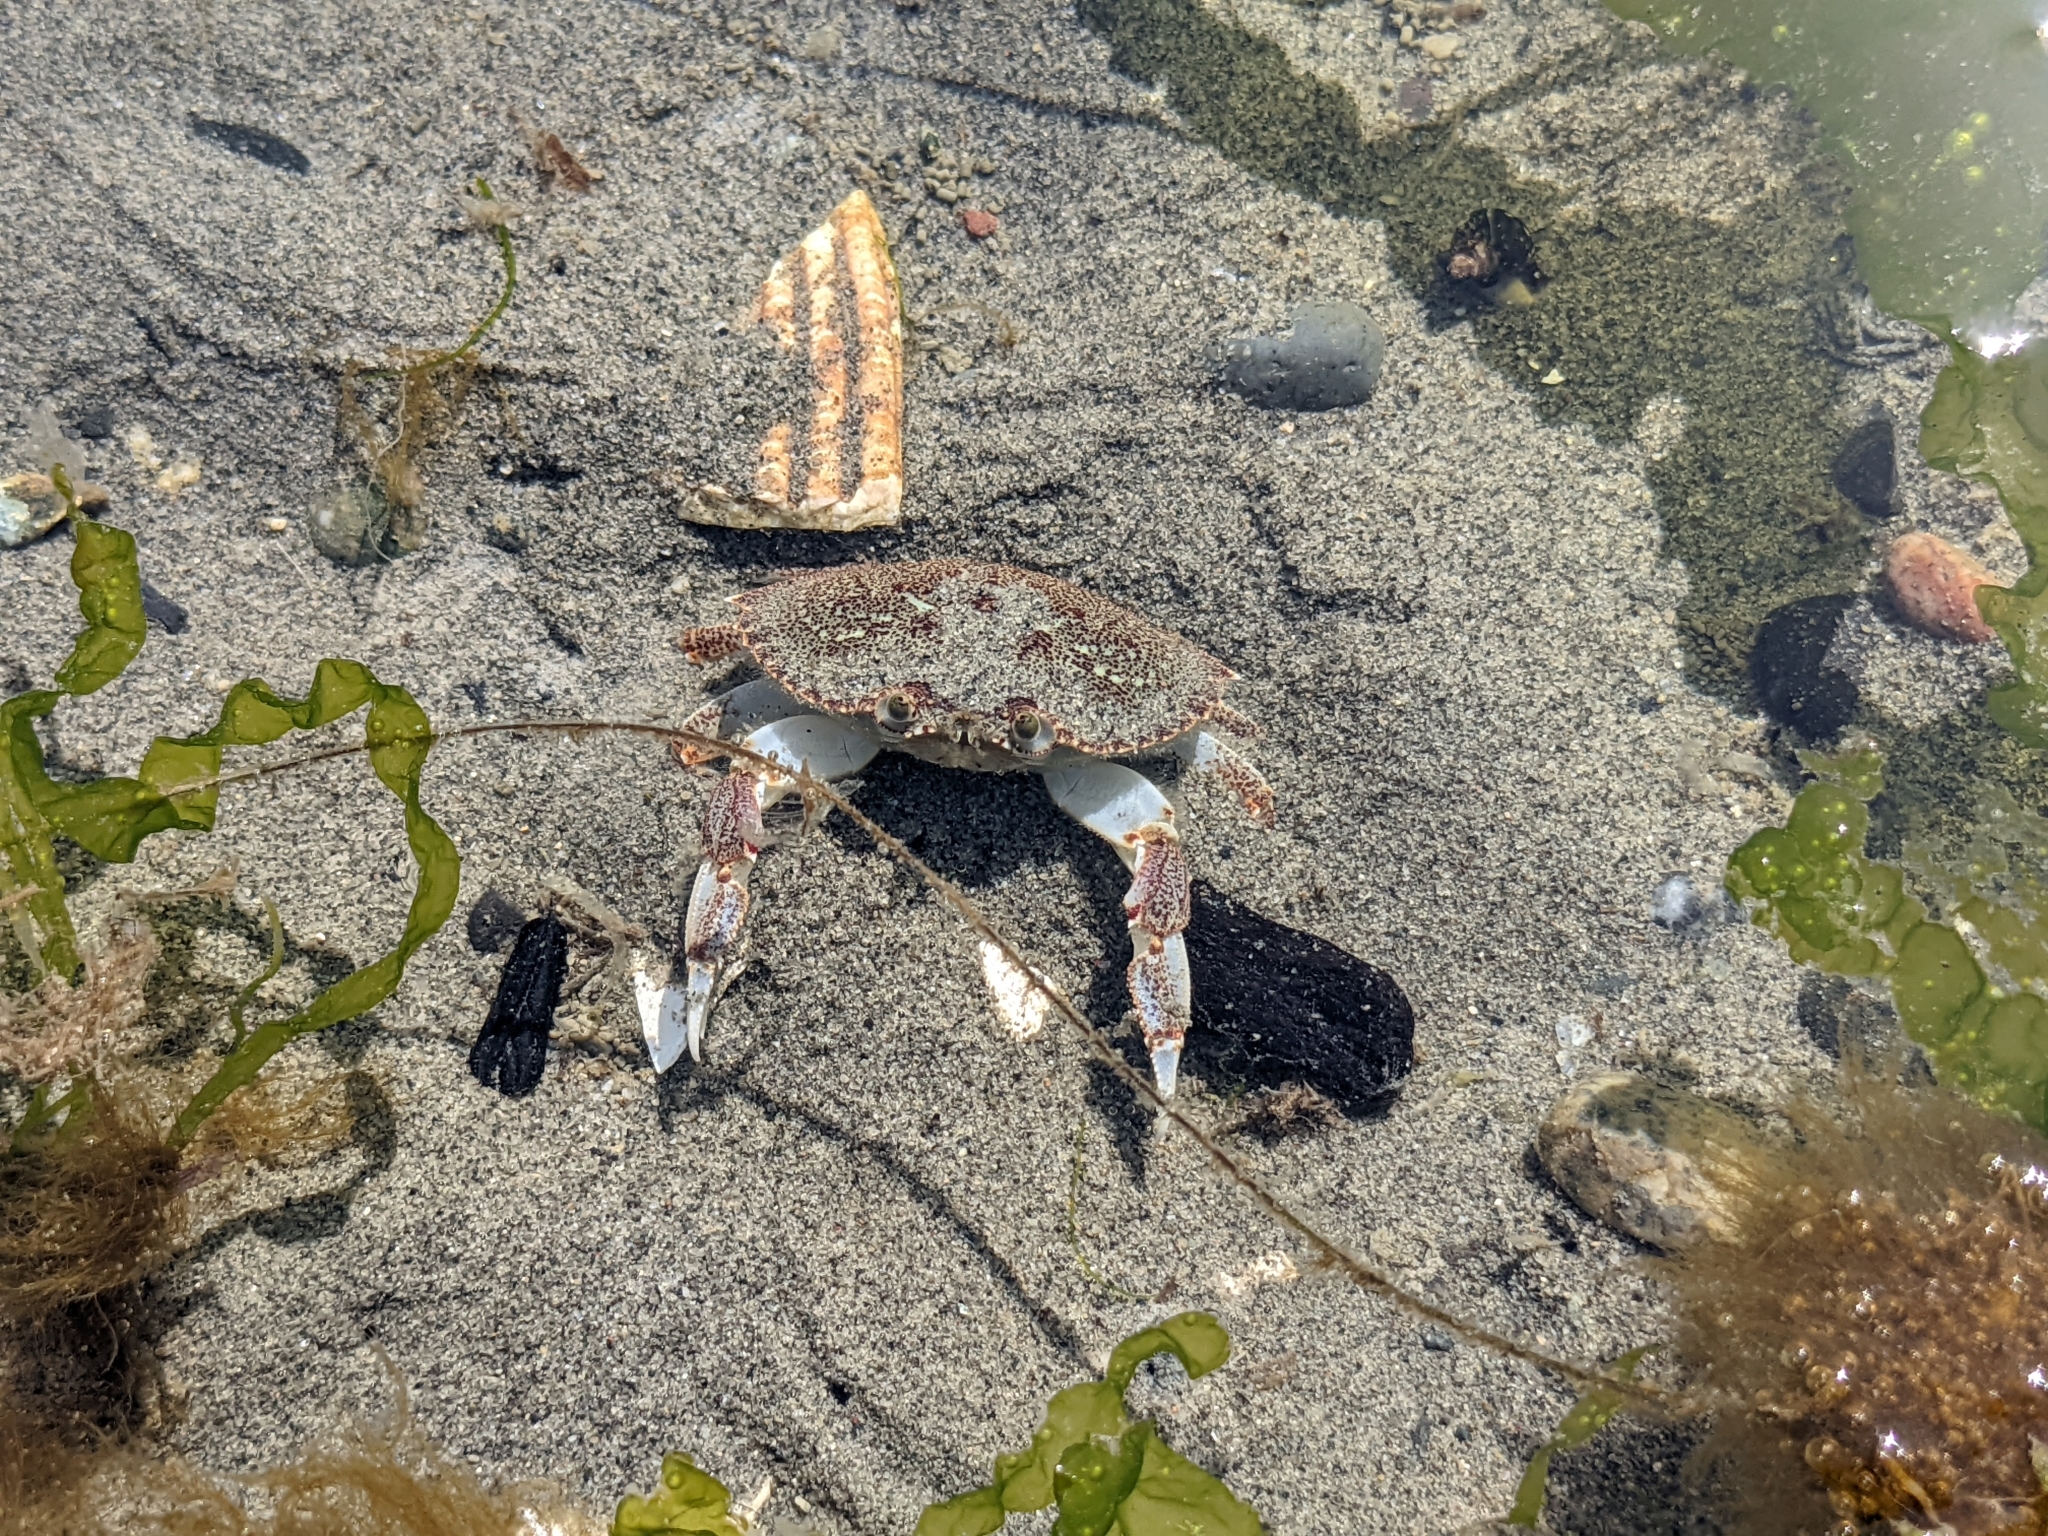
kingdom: Animalia
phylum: Arthropoda
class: Malacostraca
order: Decapoda
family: Cancridae
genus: Metacarcinus
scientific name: Metacarcinus magister
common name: Californian crab
